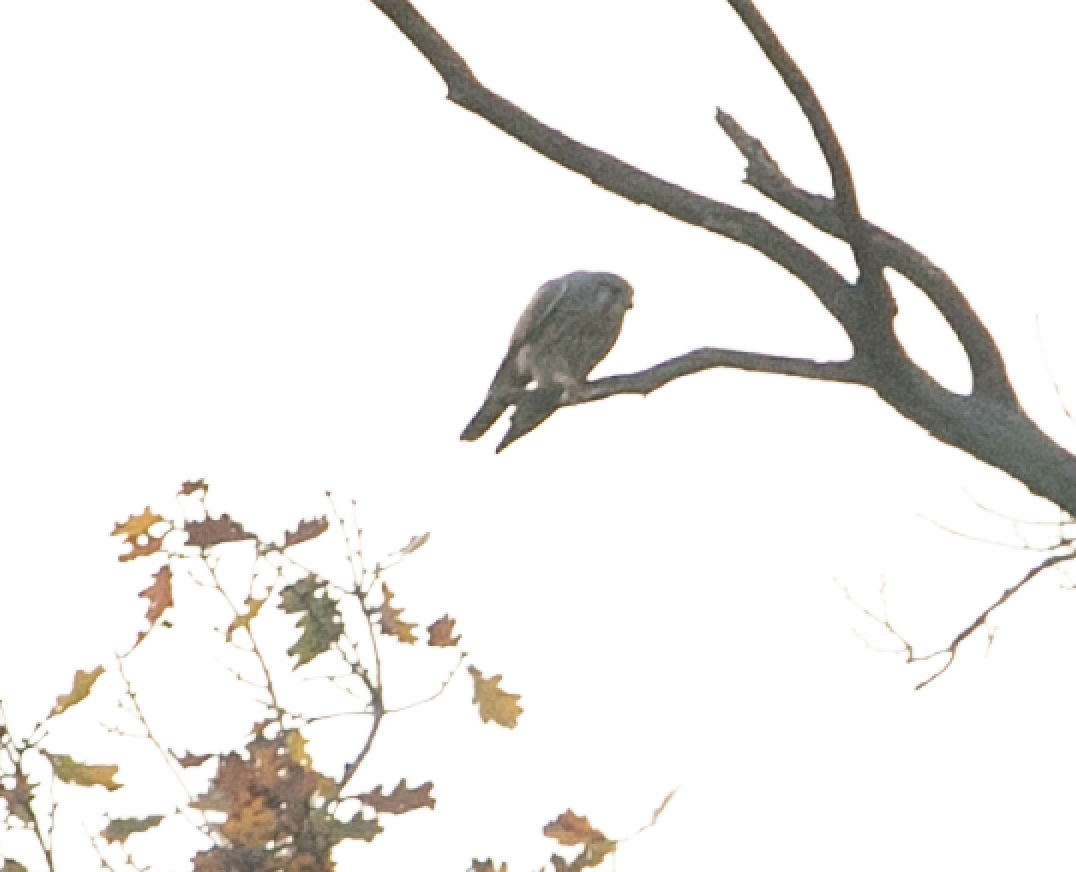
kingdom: Animalia
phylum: Chordata
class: Aves
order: Falconiformes
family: Falconidae
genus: Falco
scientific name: Falco tinnunculus
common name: Common kestrel
